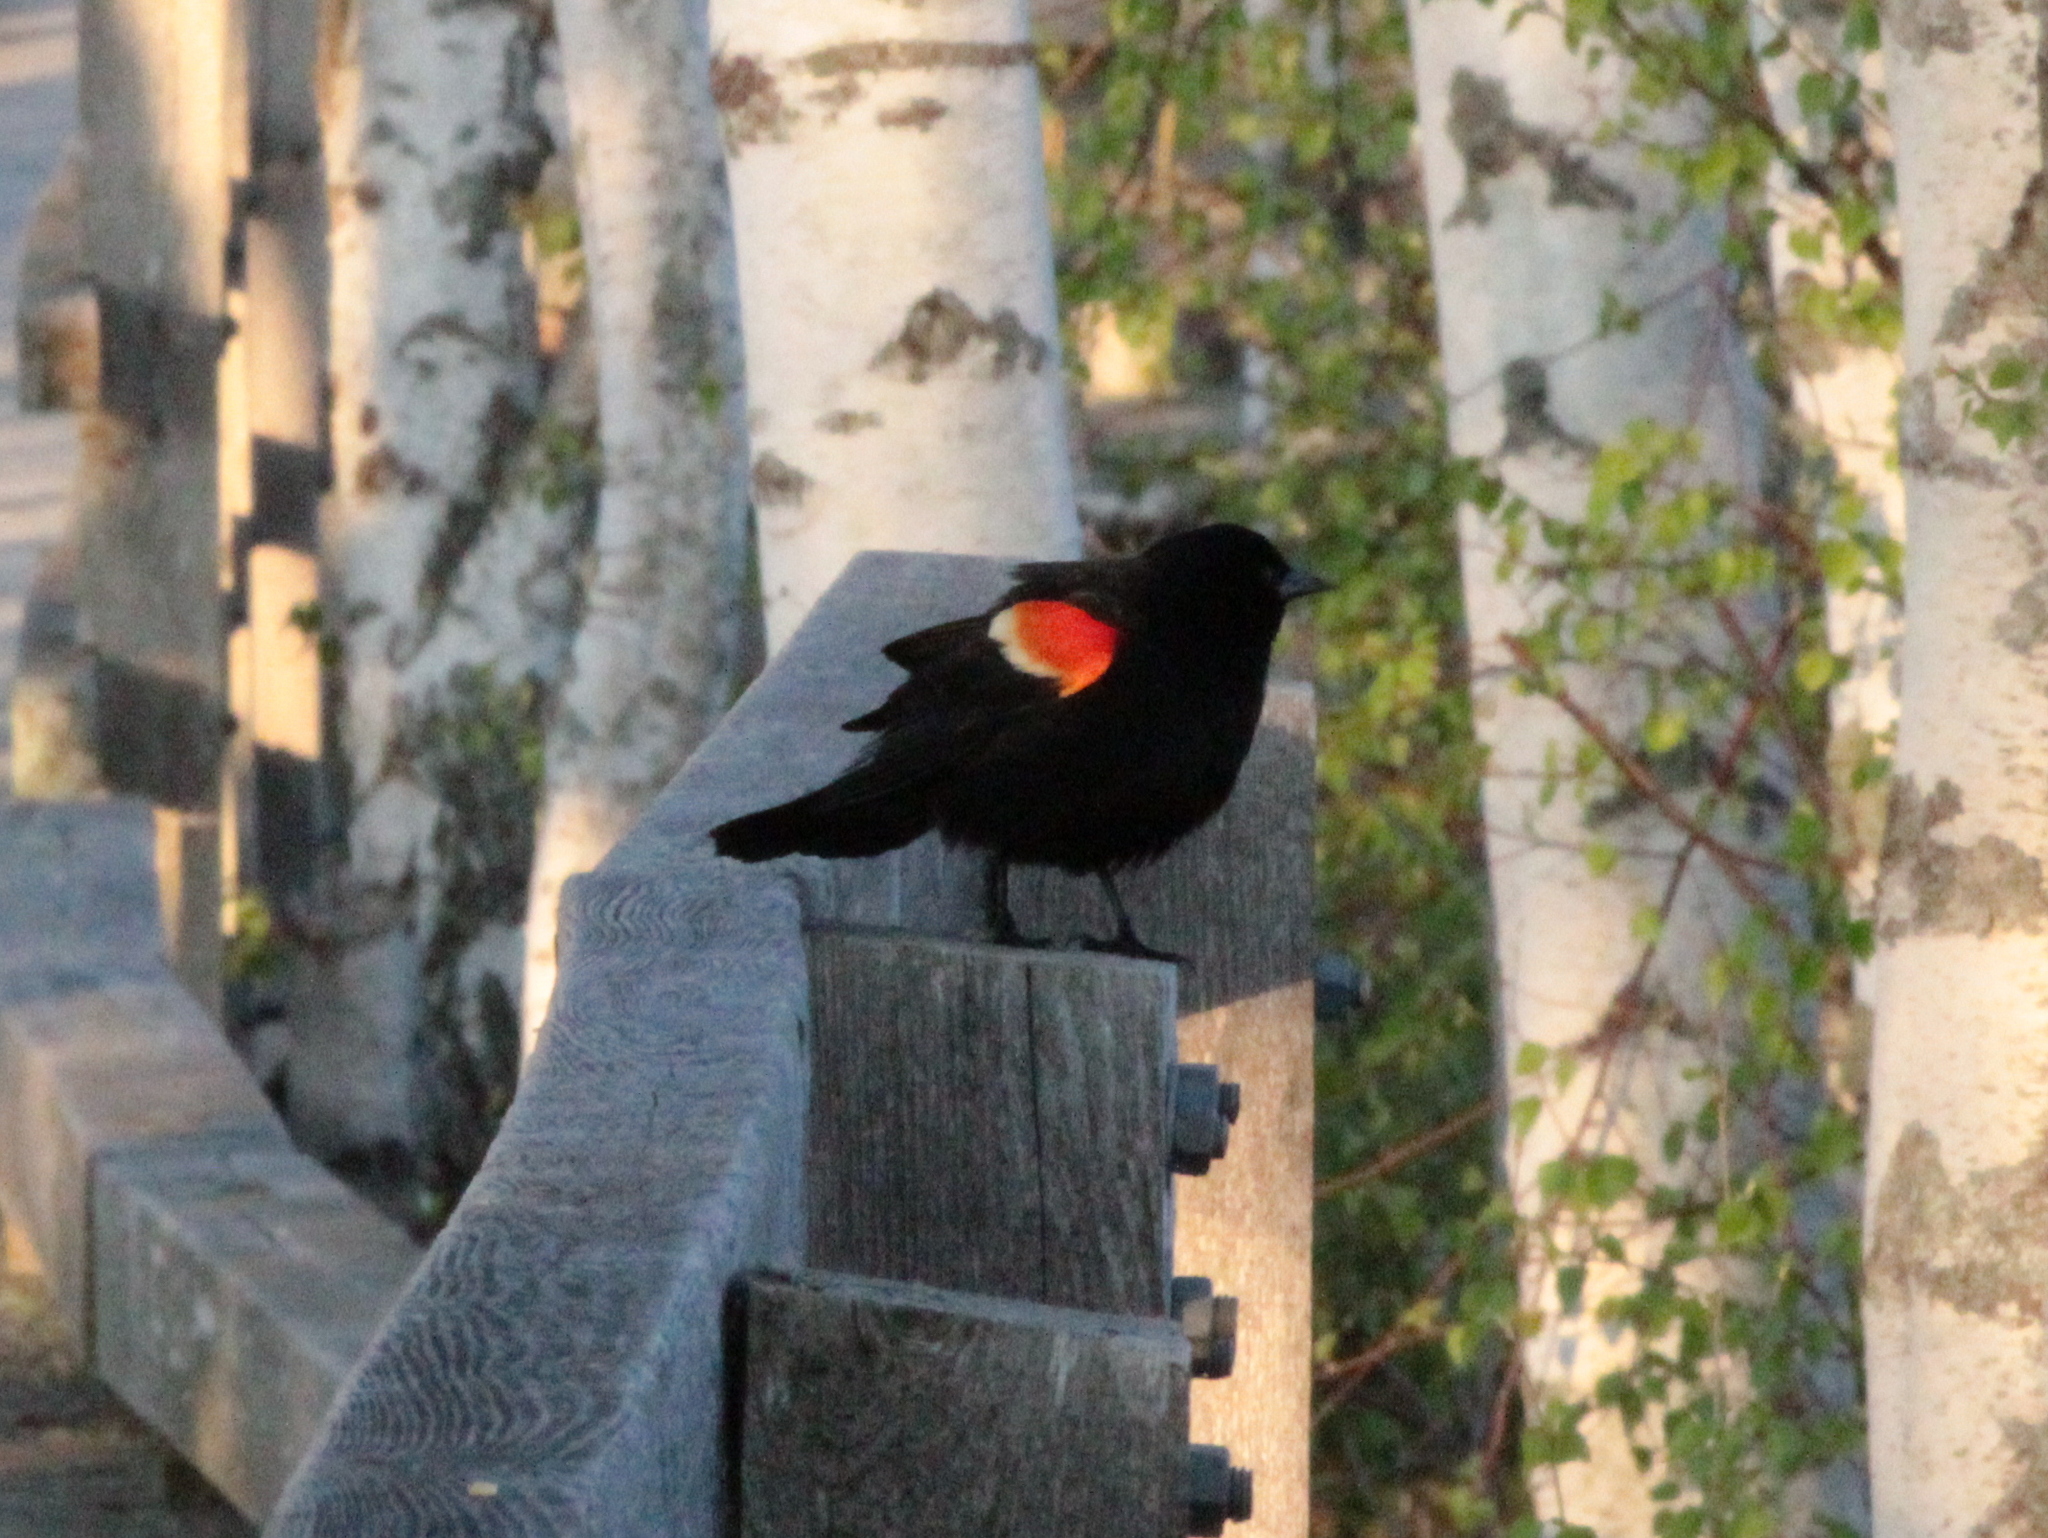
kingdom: Animalia
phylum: Chordata
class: Aves
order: Passeriformes
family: Icteridae
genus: Agelaius
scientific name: Agelaius phoeniceus
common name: Red-winged blackbird
